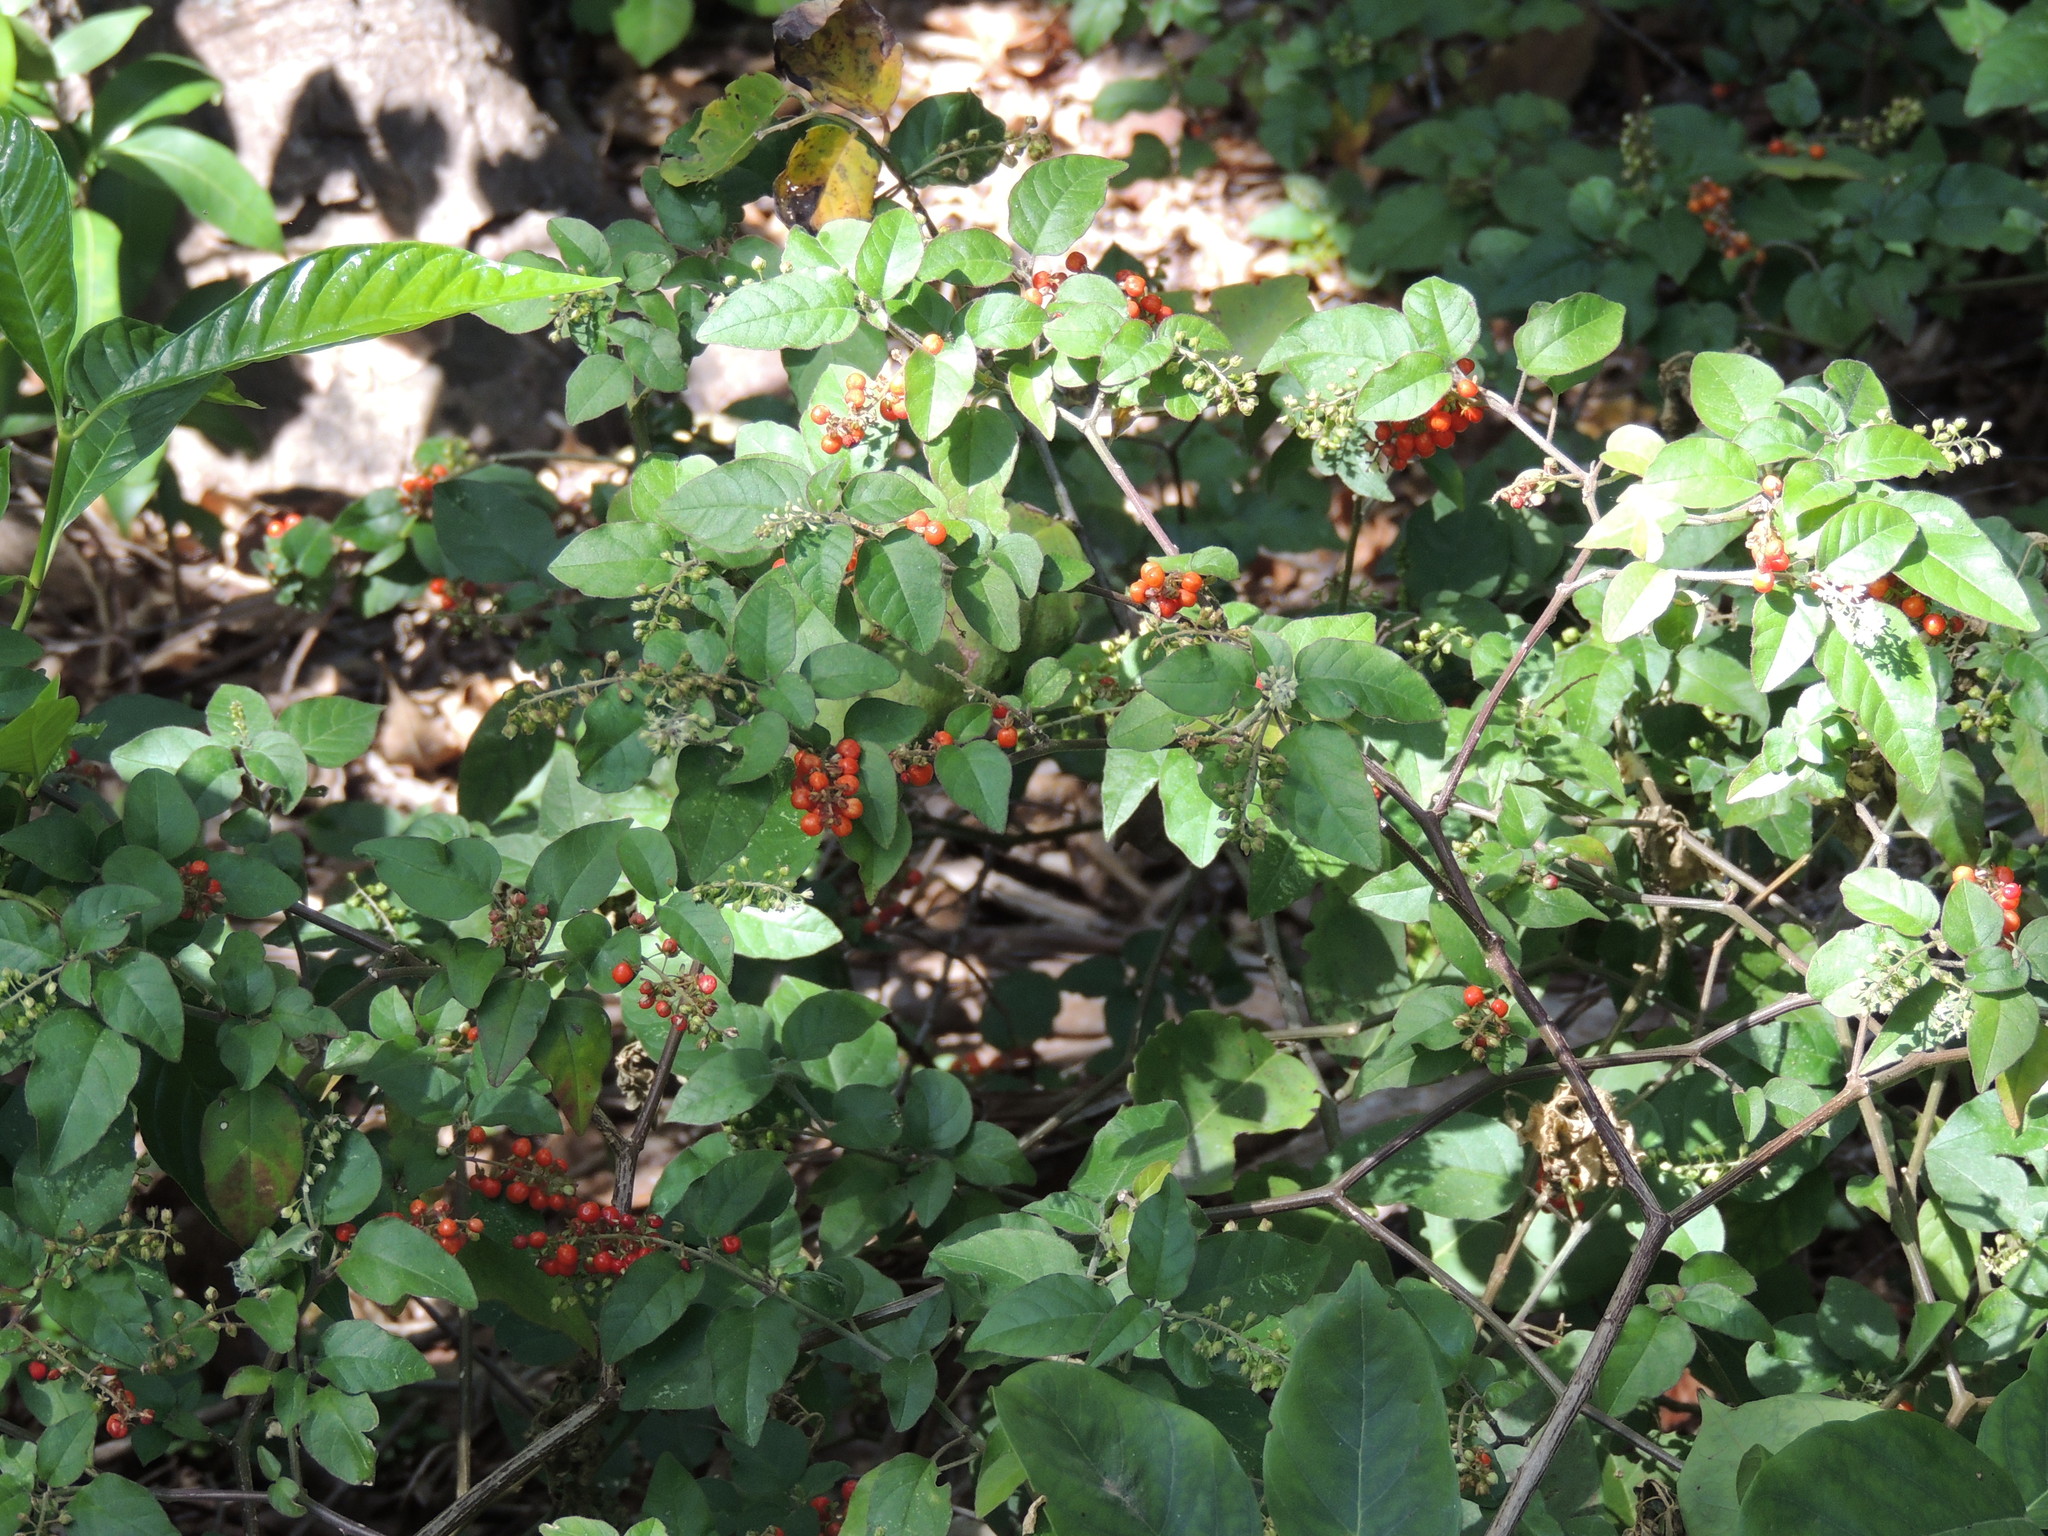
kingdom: Plantae
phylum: Tracheophyta
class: Magnoliopsida
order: Caryophyllales
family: Phytolaccaceae
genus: Rivina
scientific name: Rivina humilis
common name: Rougeplant
